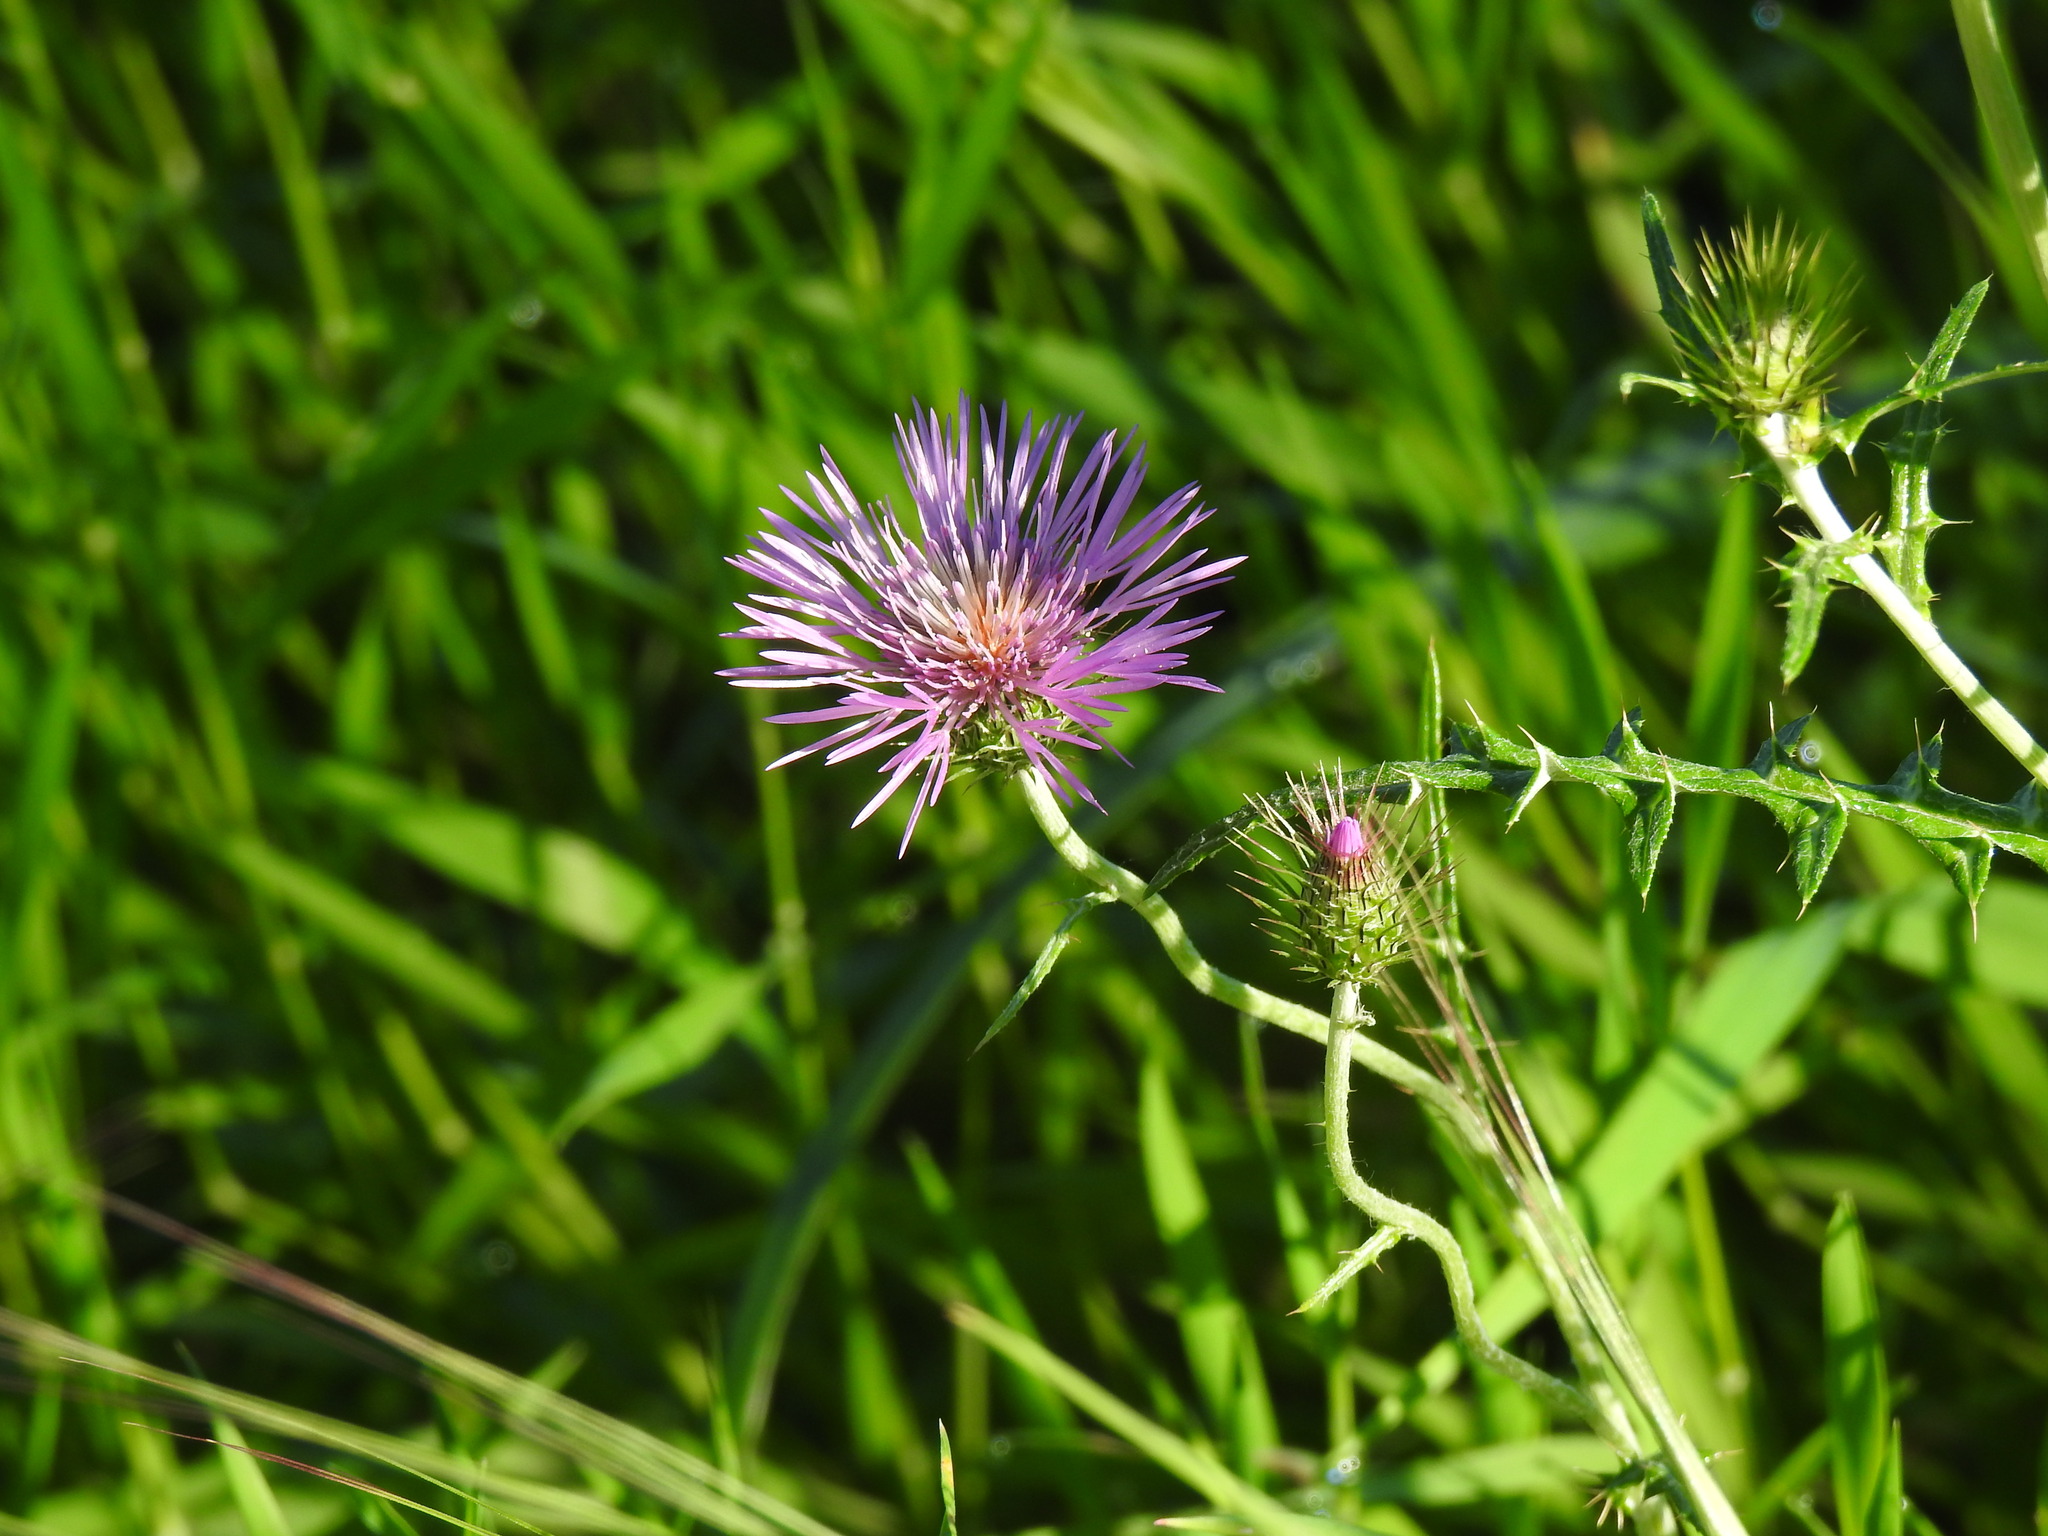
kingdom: Plantae
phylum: Tracheophyta
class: Magnoliopsida
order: Asterales
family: Asteraceae
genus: Galactites
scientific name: Galactites tomentosa
